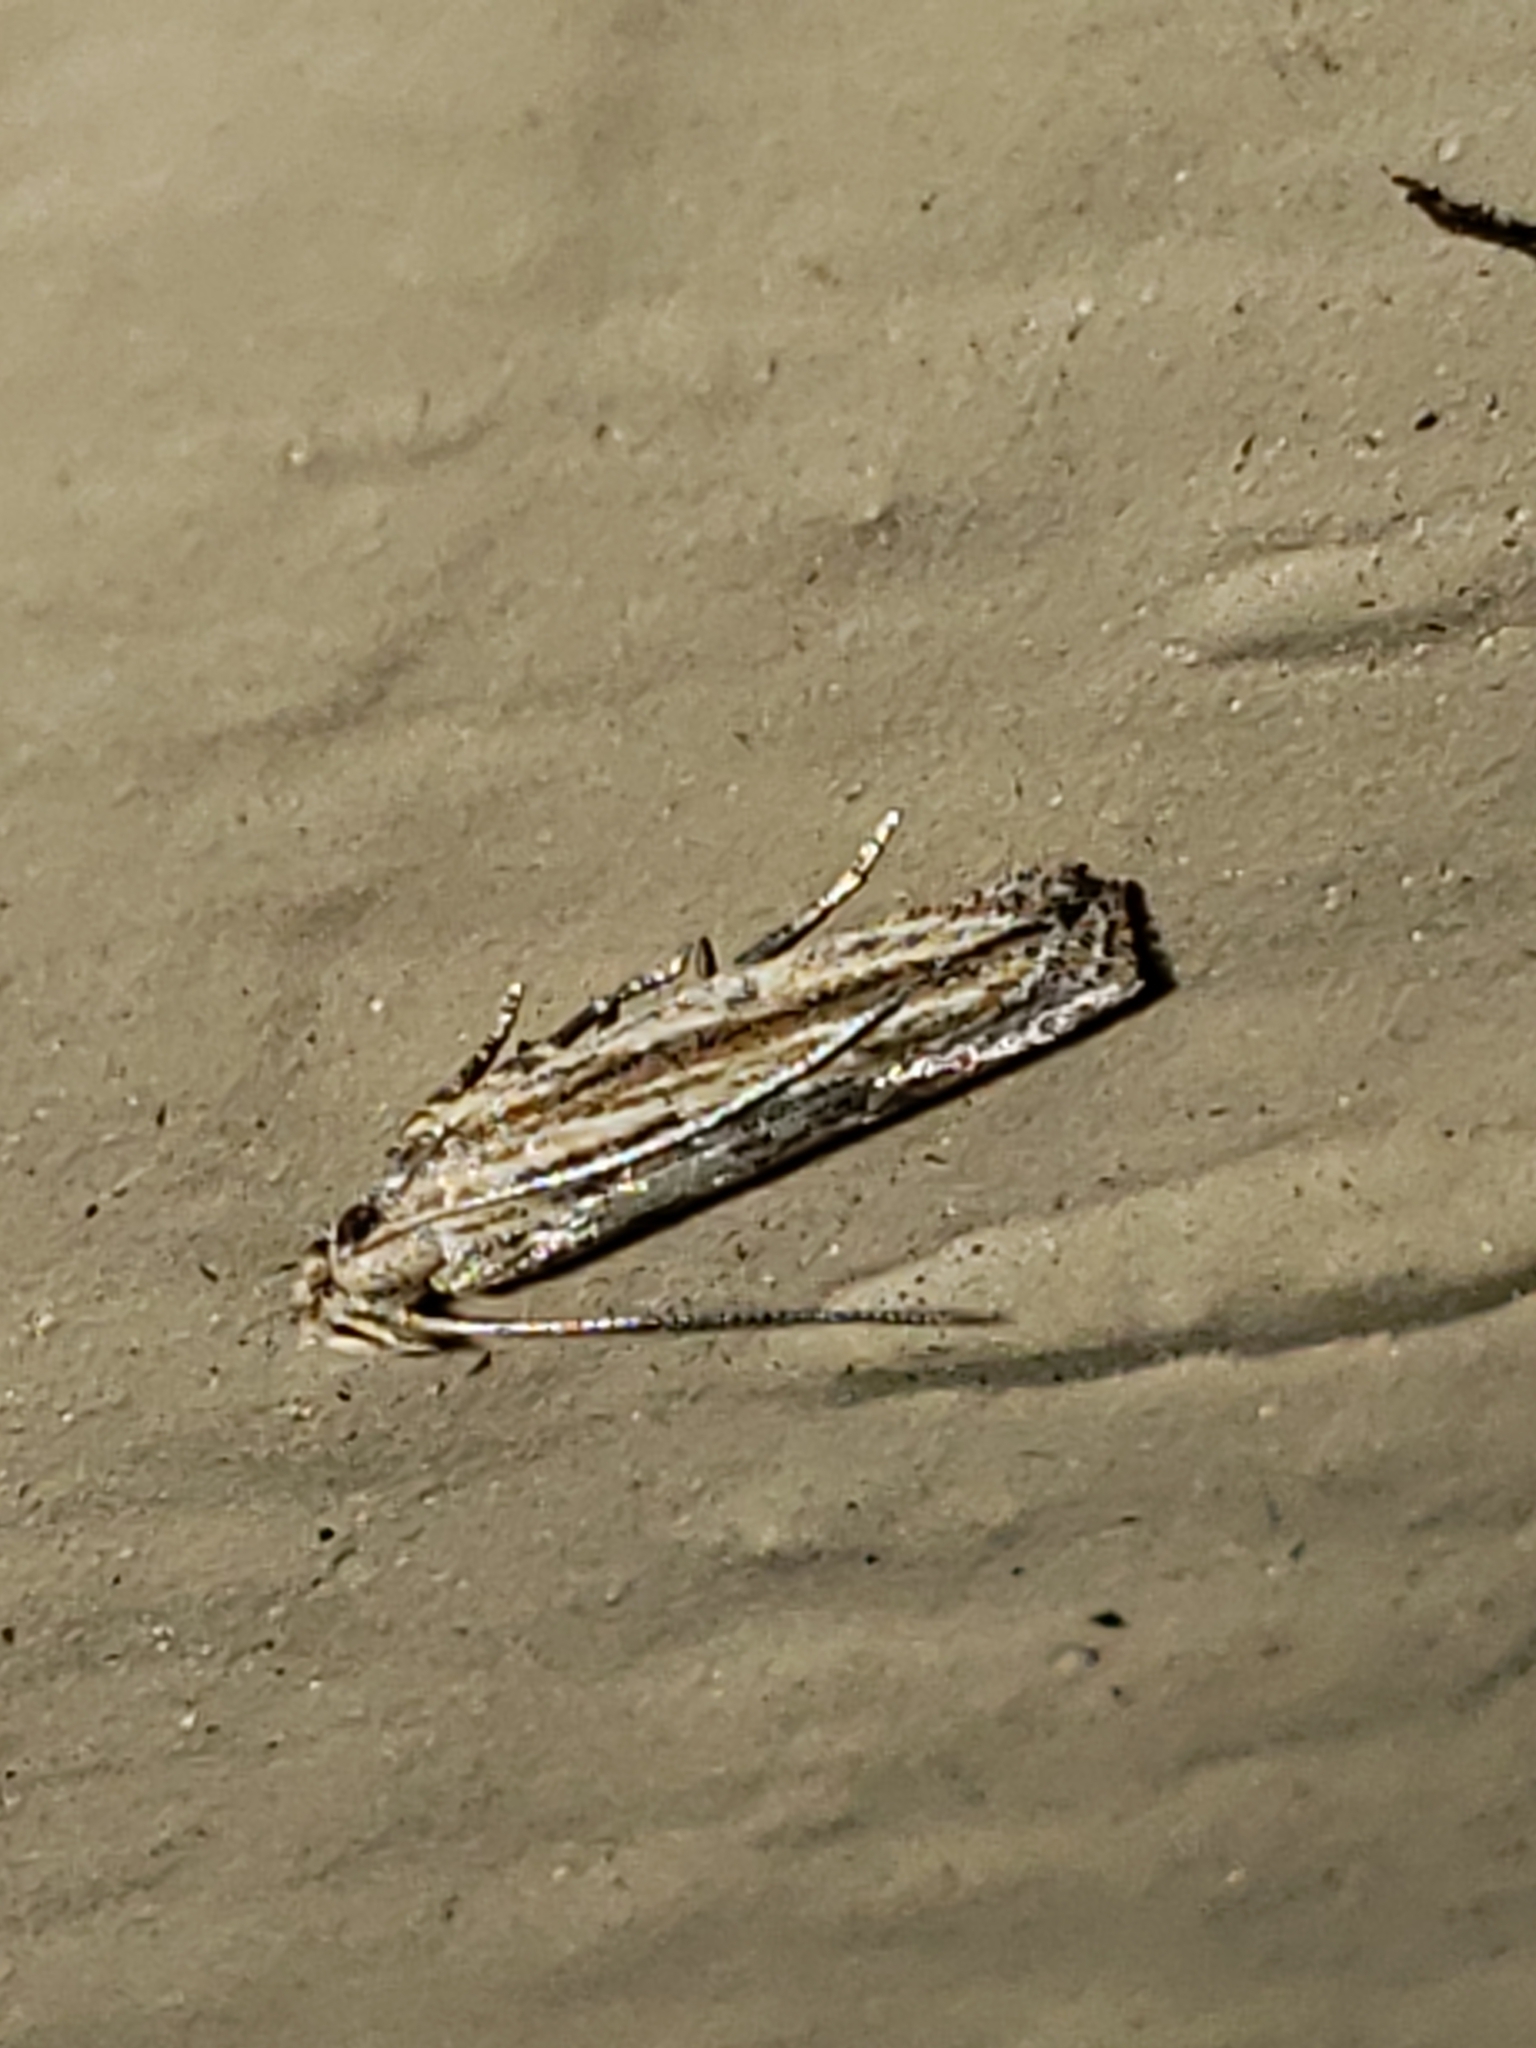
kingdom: Animalia
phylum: Arthropoda
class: Insecta
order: Lepidoptera
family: Gelechiidae
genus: Symmetrischema
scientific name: Symmetrischema striatella
